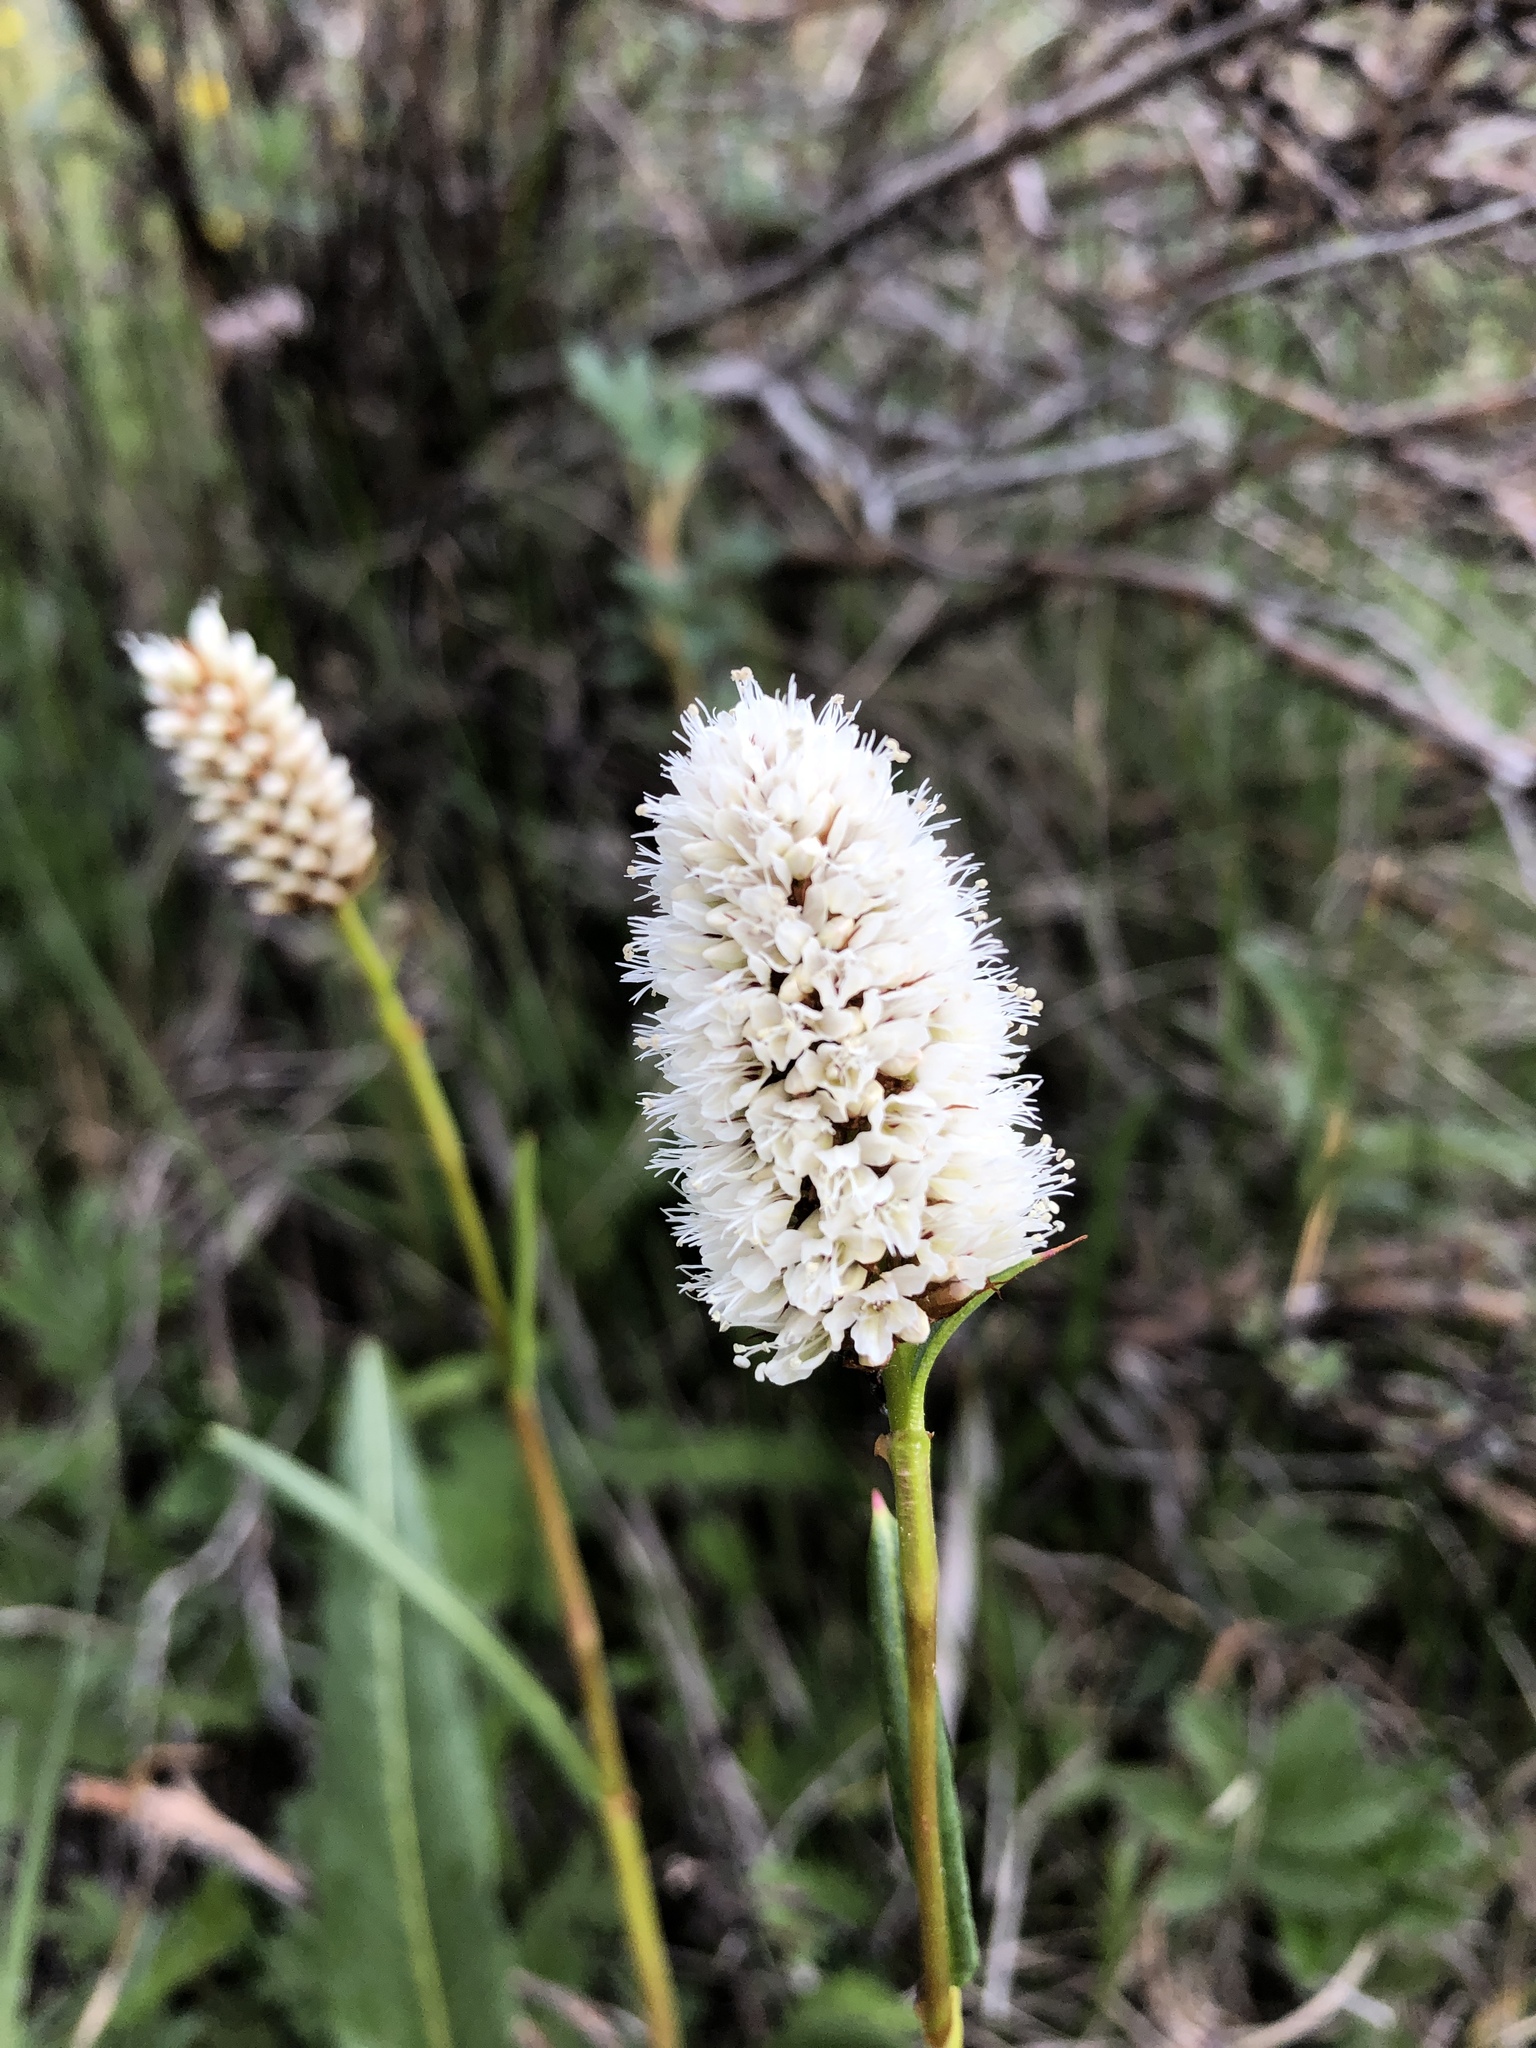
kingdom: Plantae
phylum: Tracheophyta
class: Magnoliopsida
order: Caryophyllales
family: Polygonaceae
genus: Bistorta
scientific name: Bistorta bistortoides
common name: American bistort
